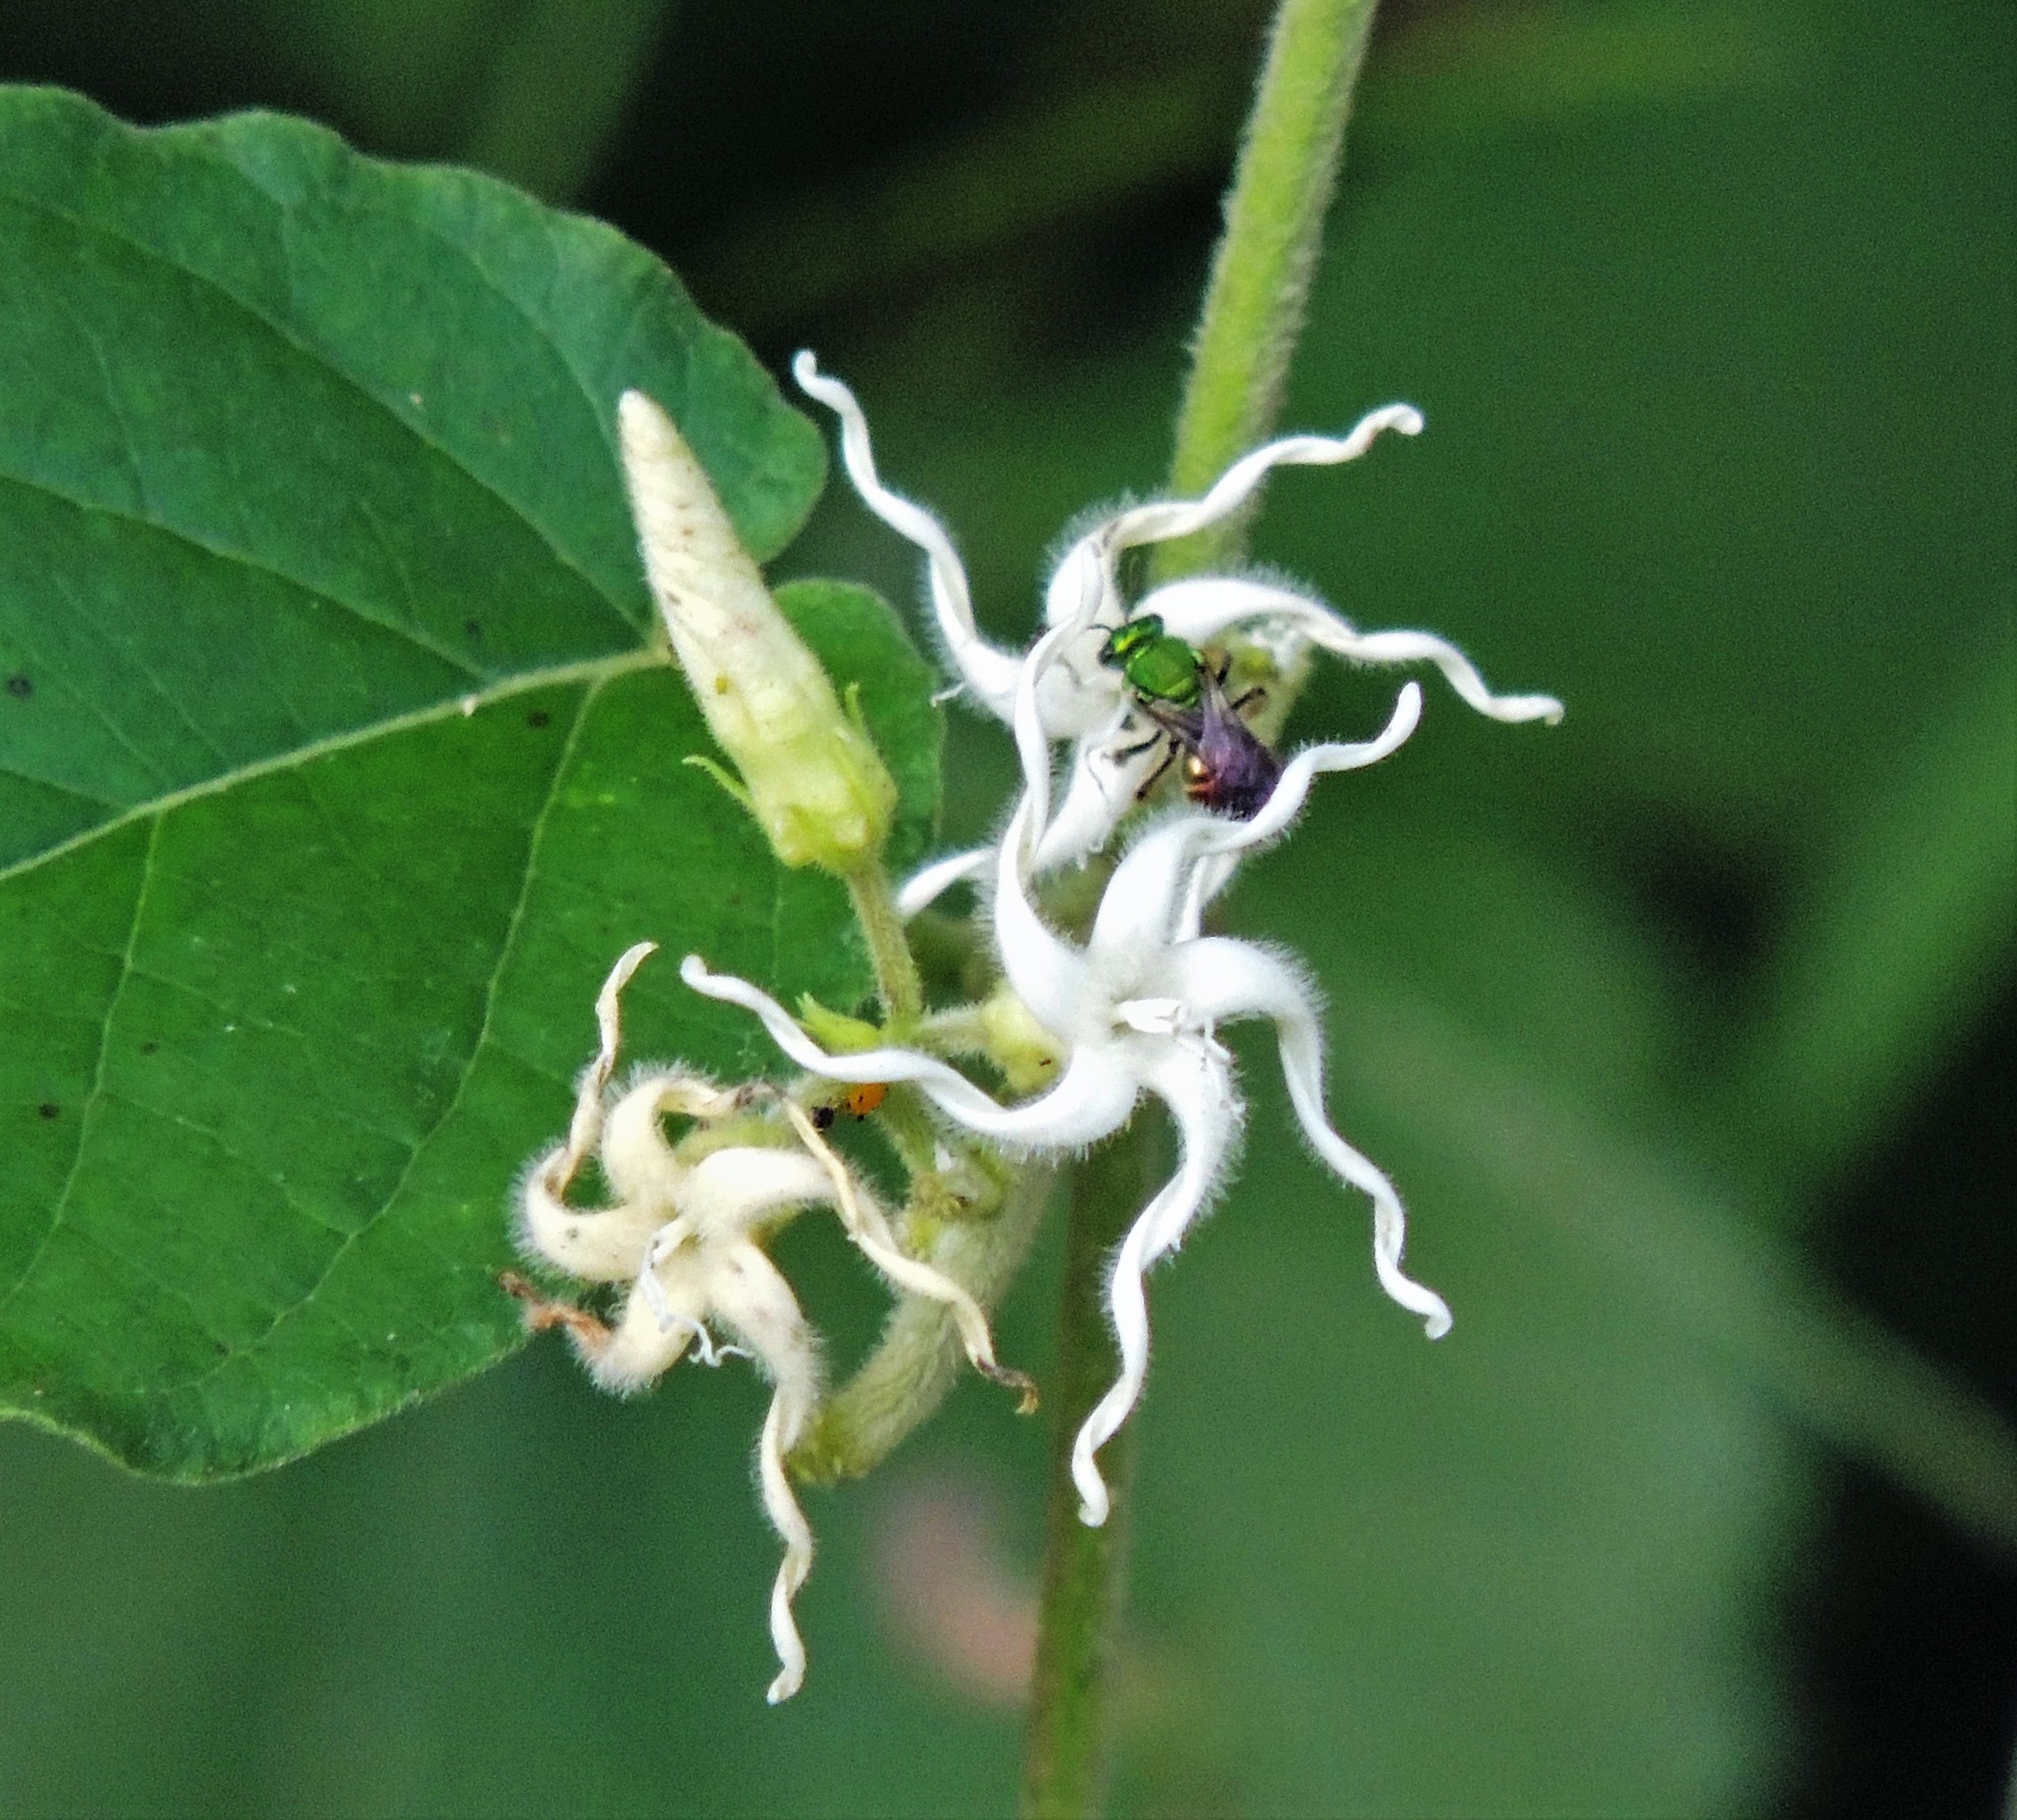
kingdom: Plantae
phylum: Tracheophyta
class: Magnoliopsida
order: Gentianales
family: Apocynaceae
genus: Oxypetalum
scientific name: Oxypetalum erianthum
